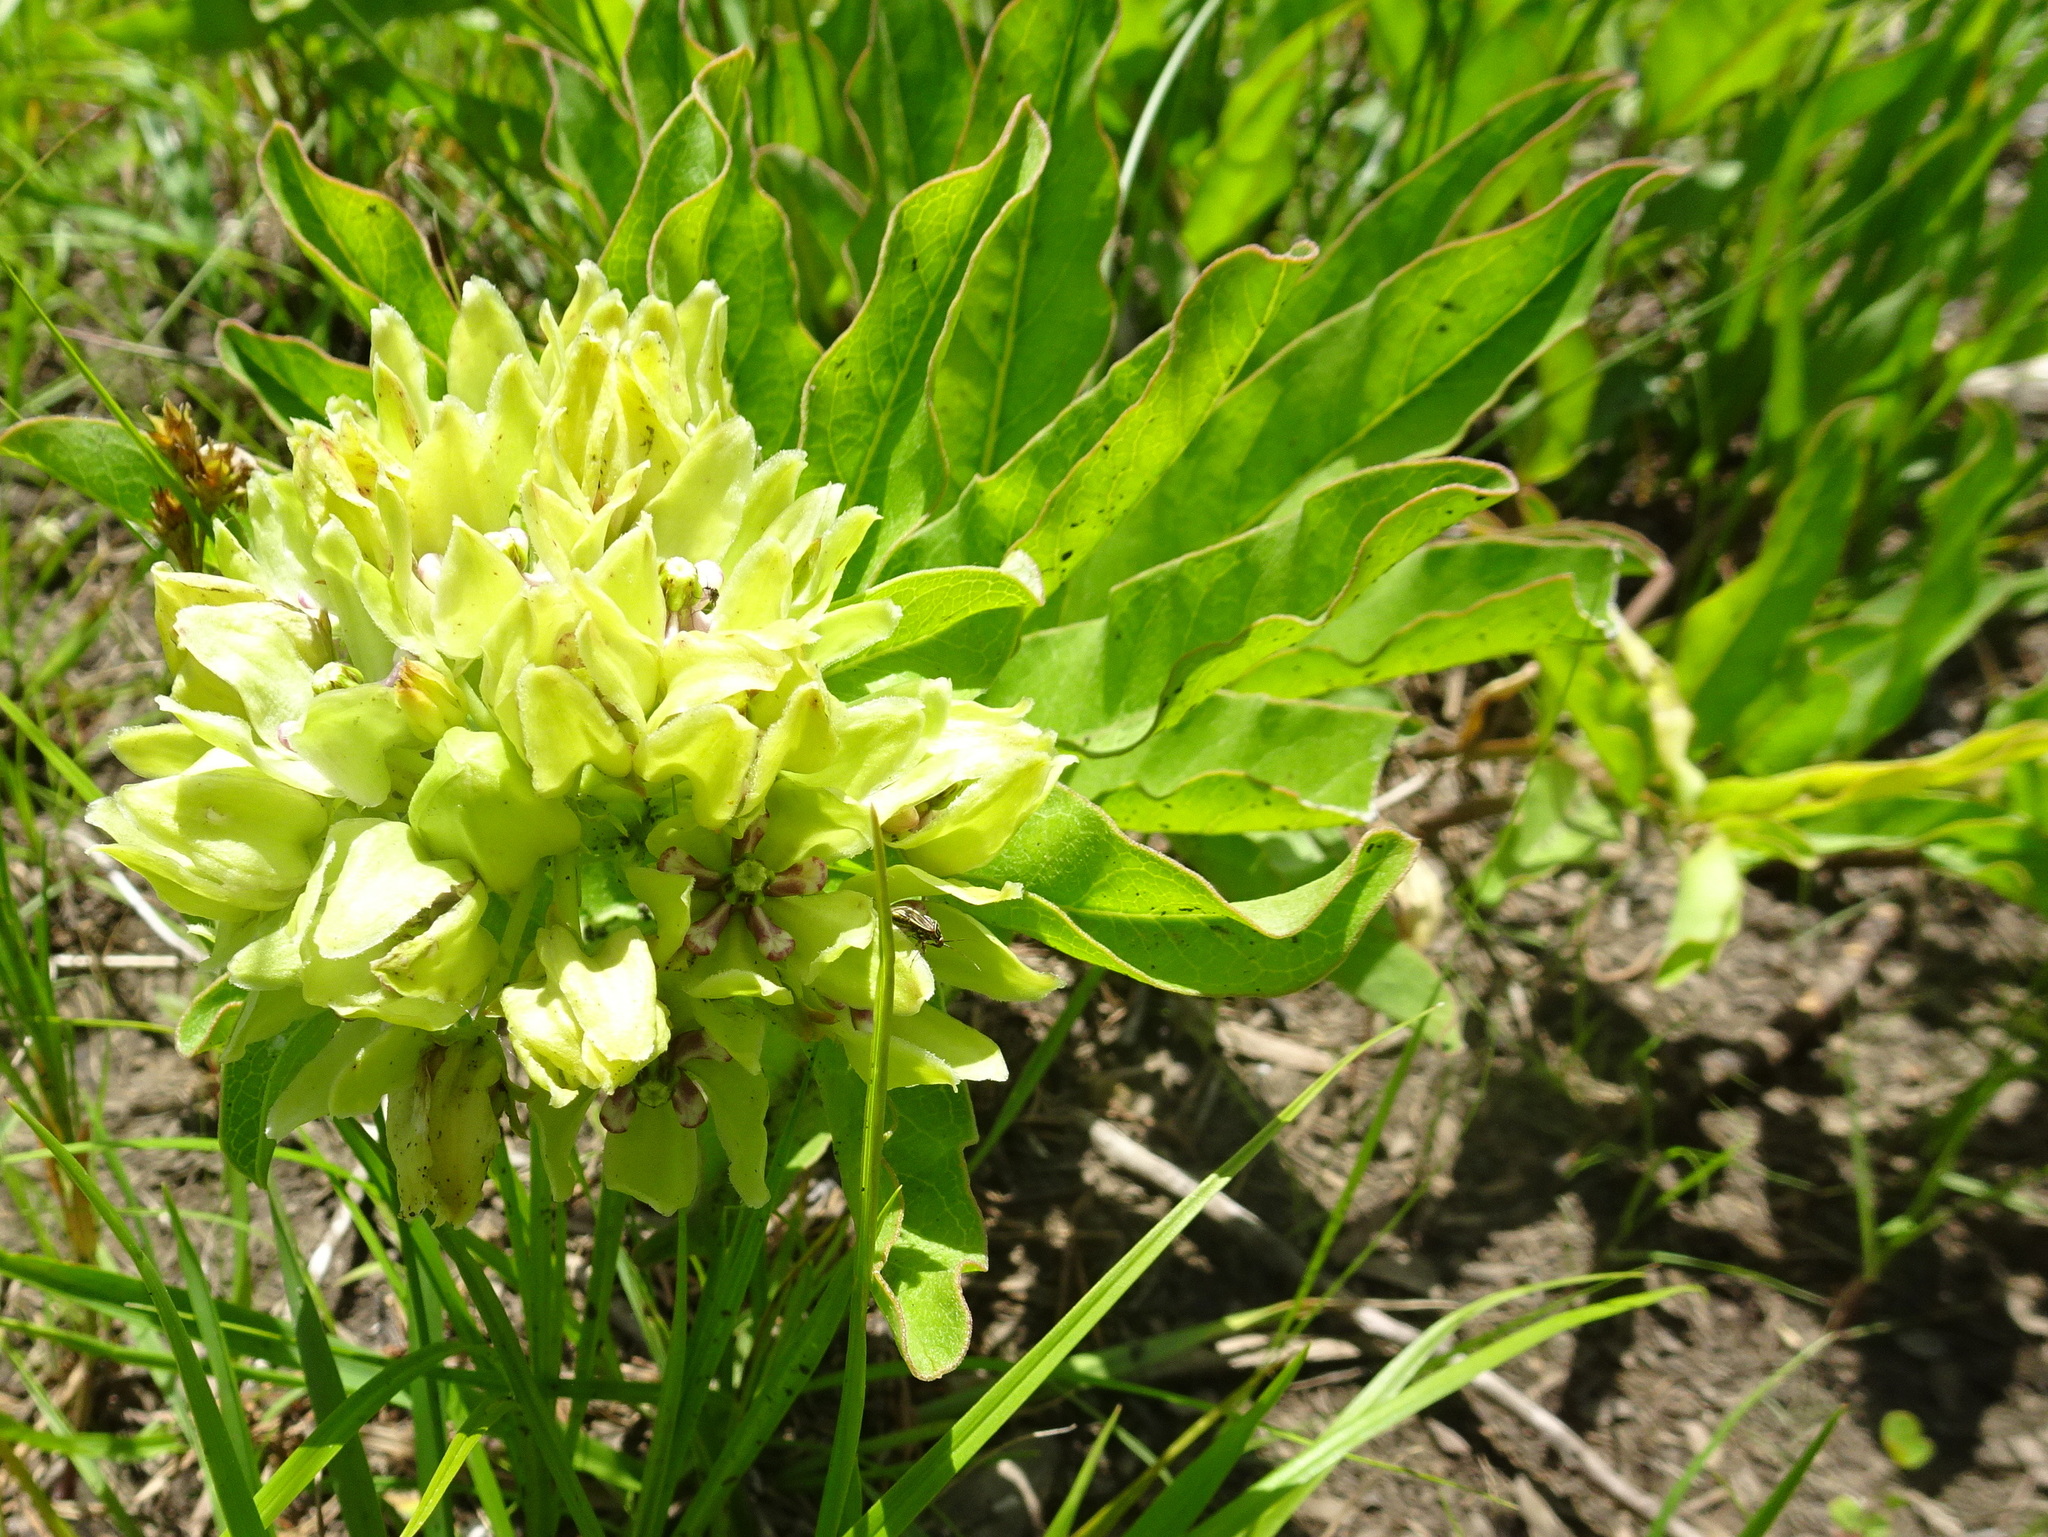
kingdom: Plantae
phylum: Tracheophyta
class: Magnoliopsida
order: Gentianales
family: Apocynaceae
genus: Asclepias
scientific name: Asclepias viridis
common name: Antelope-horns
